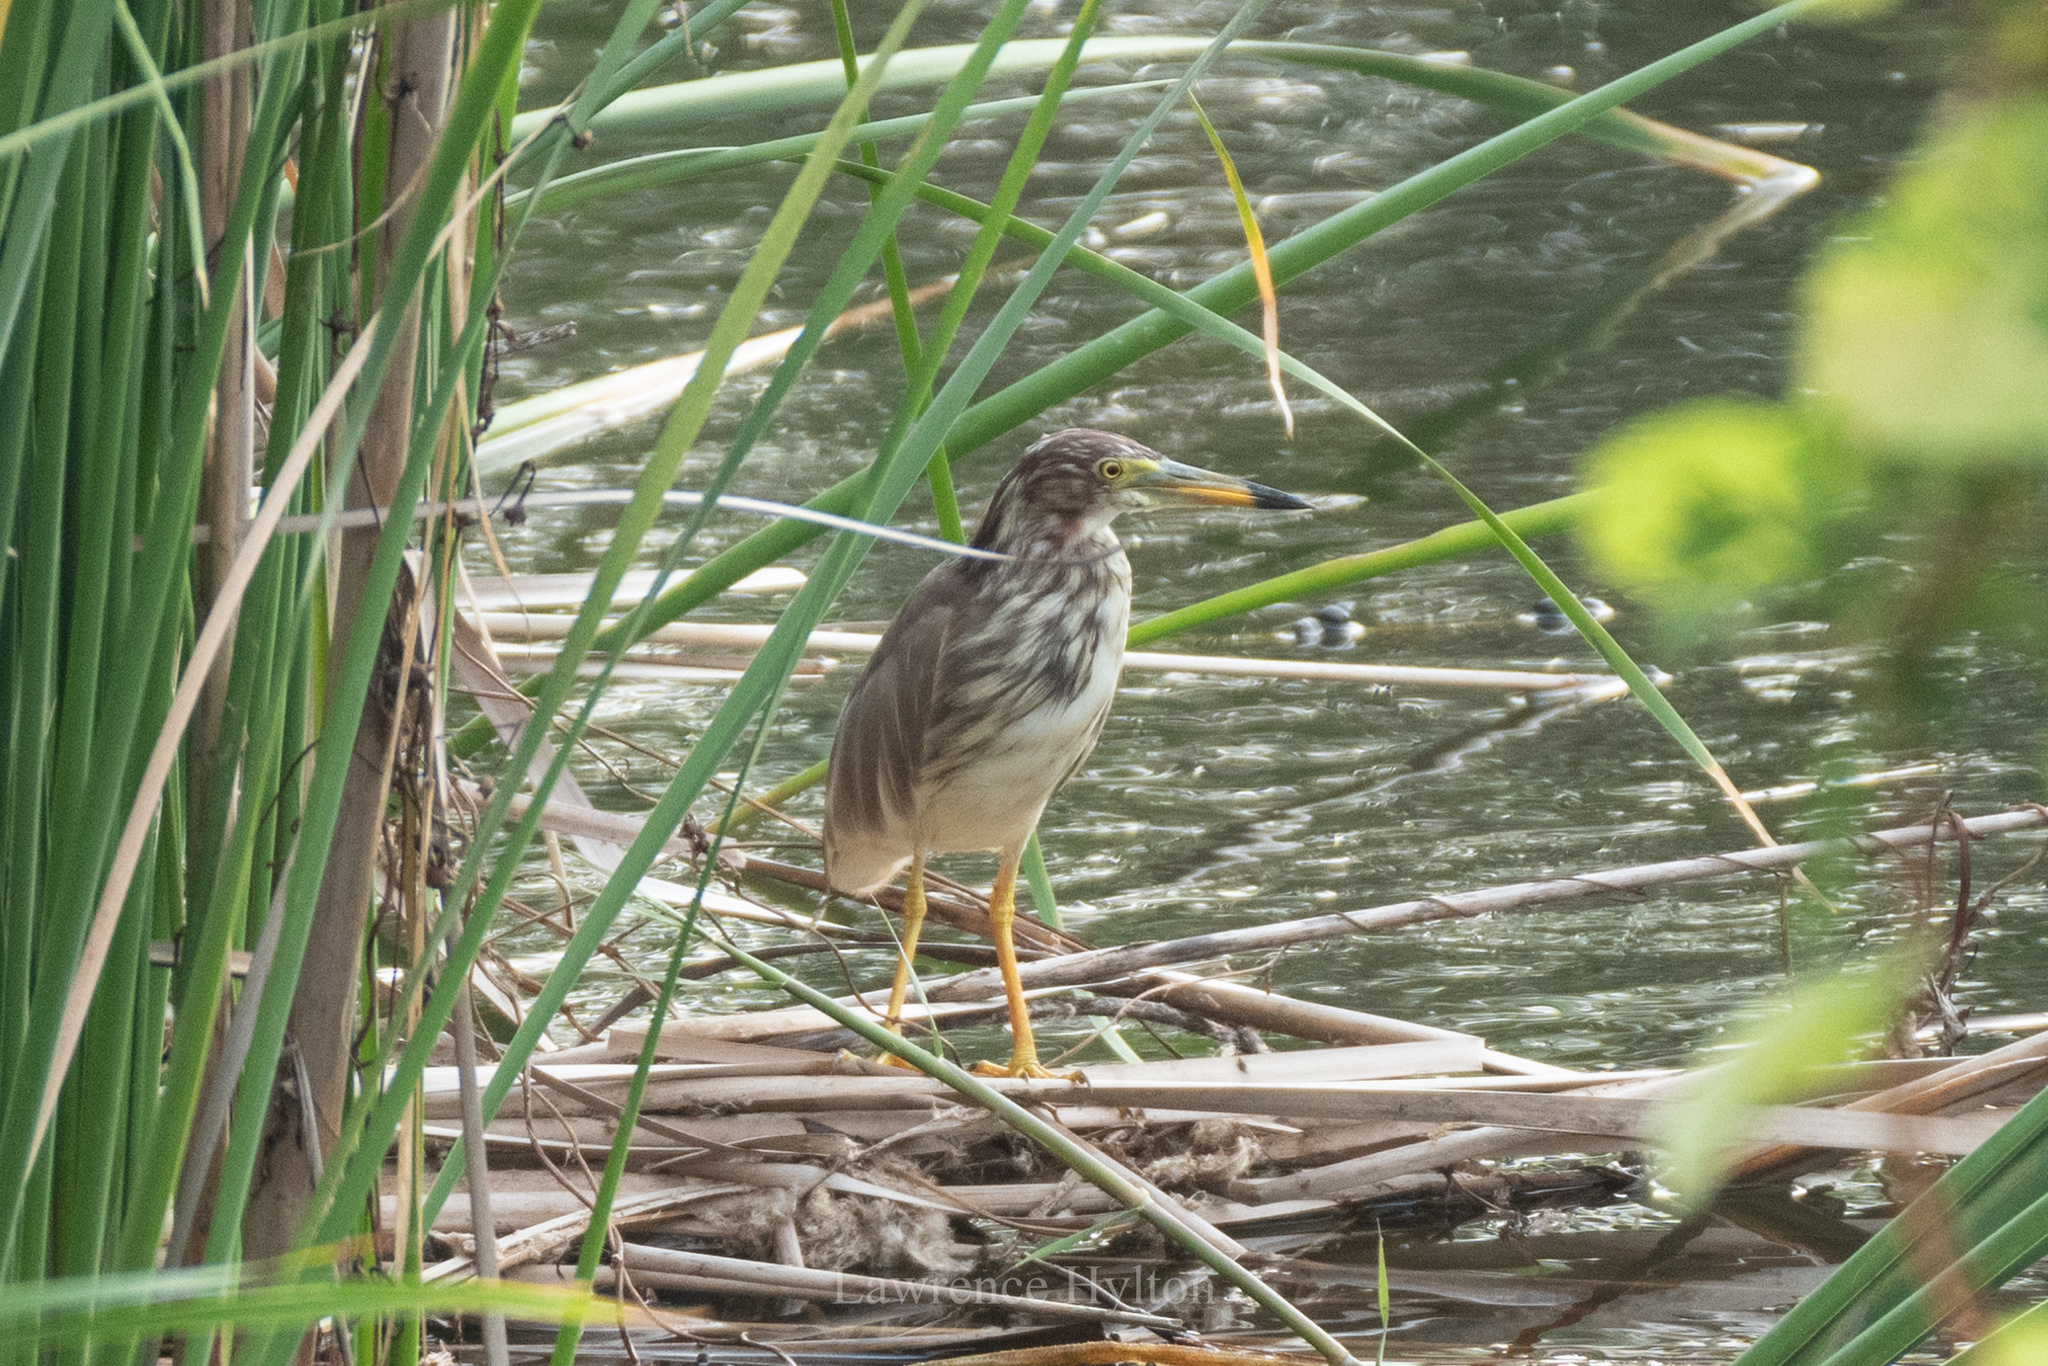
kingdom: Animalia
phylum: Chordata
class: Aves
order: Pelecaniformes
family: Ardeidae
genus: Ardeola
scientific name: Ardeola bacchus
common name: Chinese pond heron
